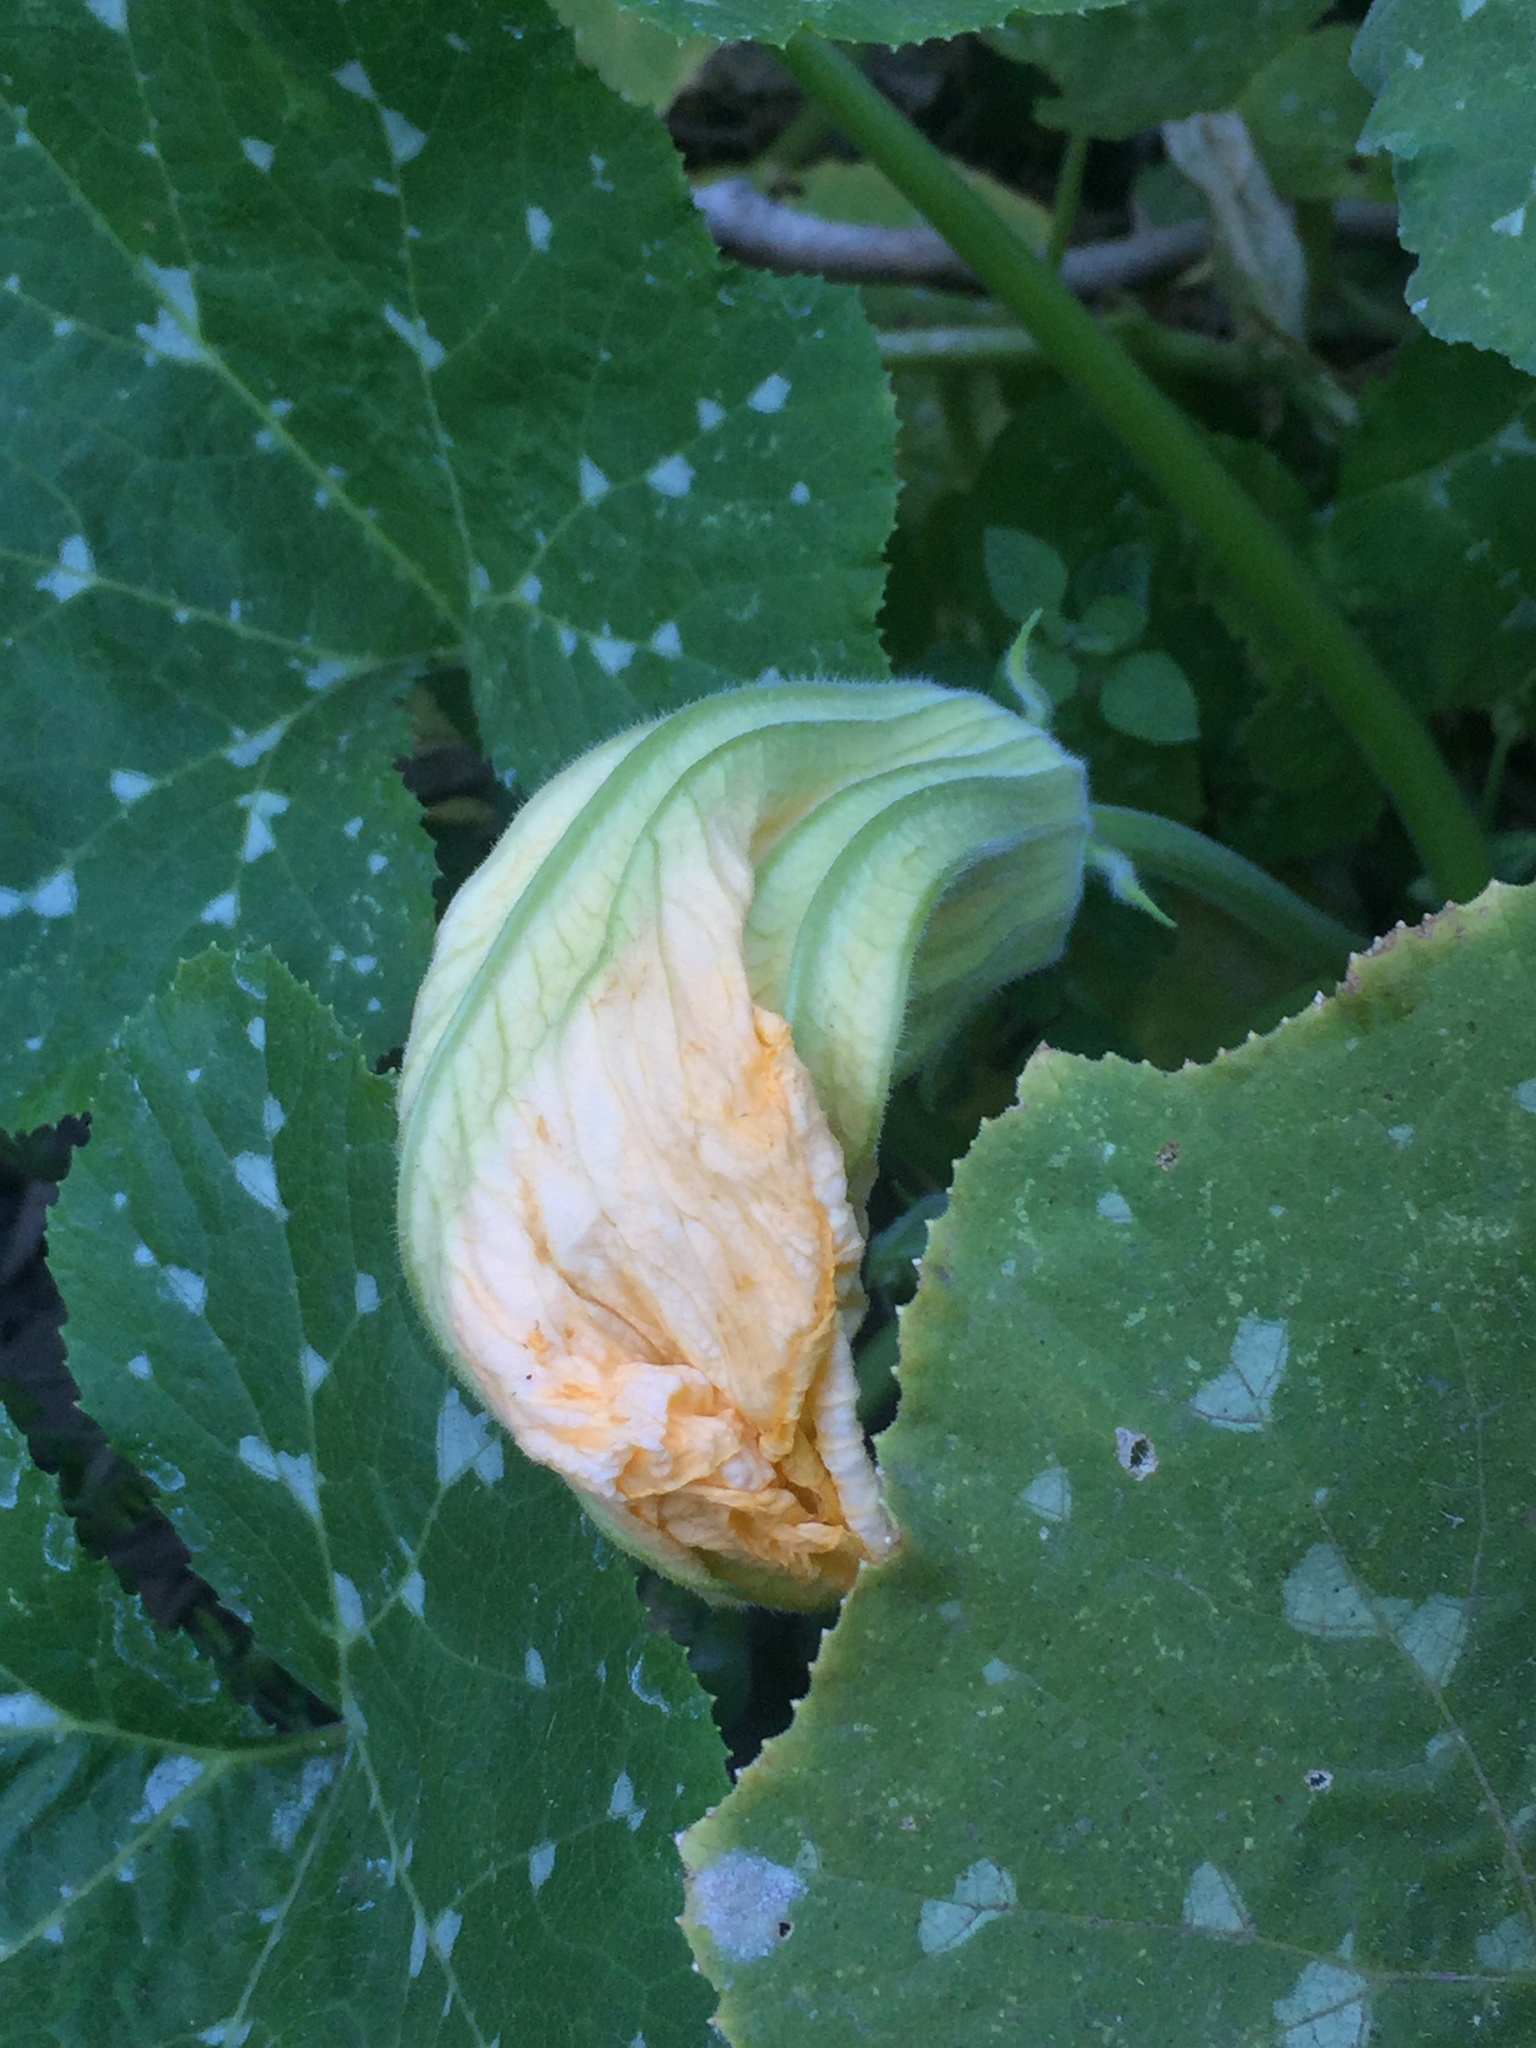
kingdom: Plantae
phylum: Tracheophyta
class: Magnoliopsida
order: Cucurbitales
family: Cucurbitaceae
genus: Cucurbita
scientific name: Cucurbita
